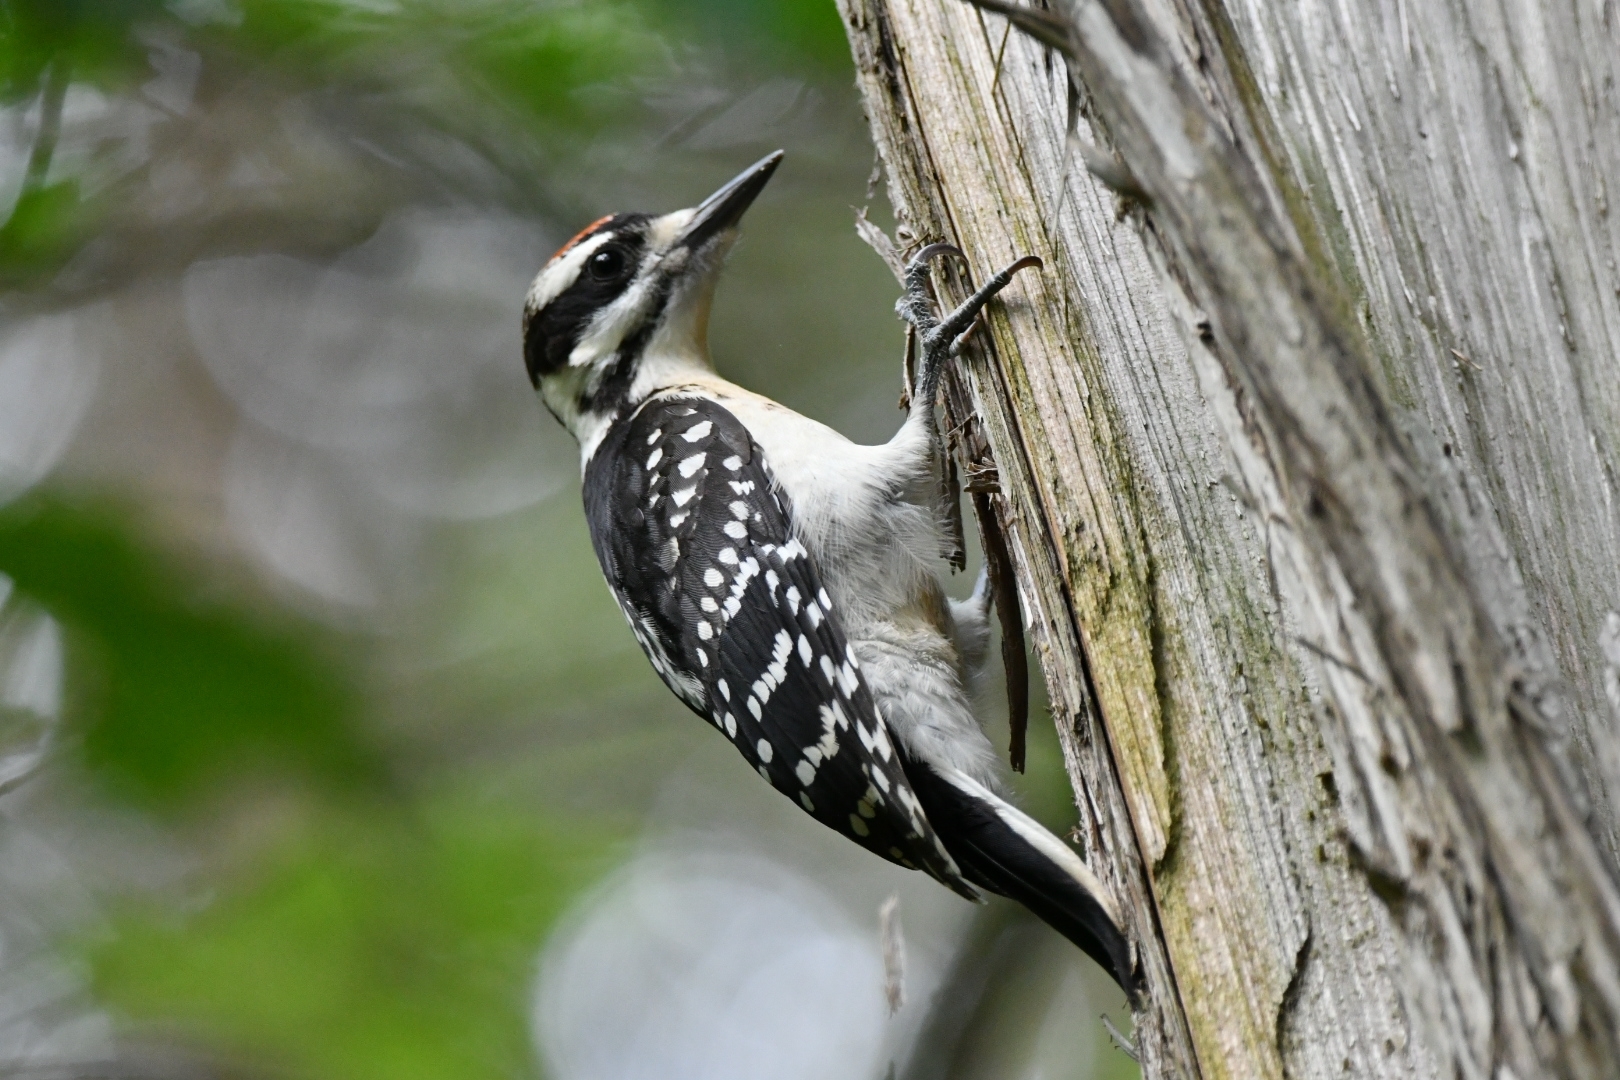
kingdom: Animalia
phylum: Chordata
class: Aves
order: Piciformes
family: Picidae
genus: Leuconotopicus
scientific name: Leuconotopicus villosus
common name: Hairy woodpecker
